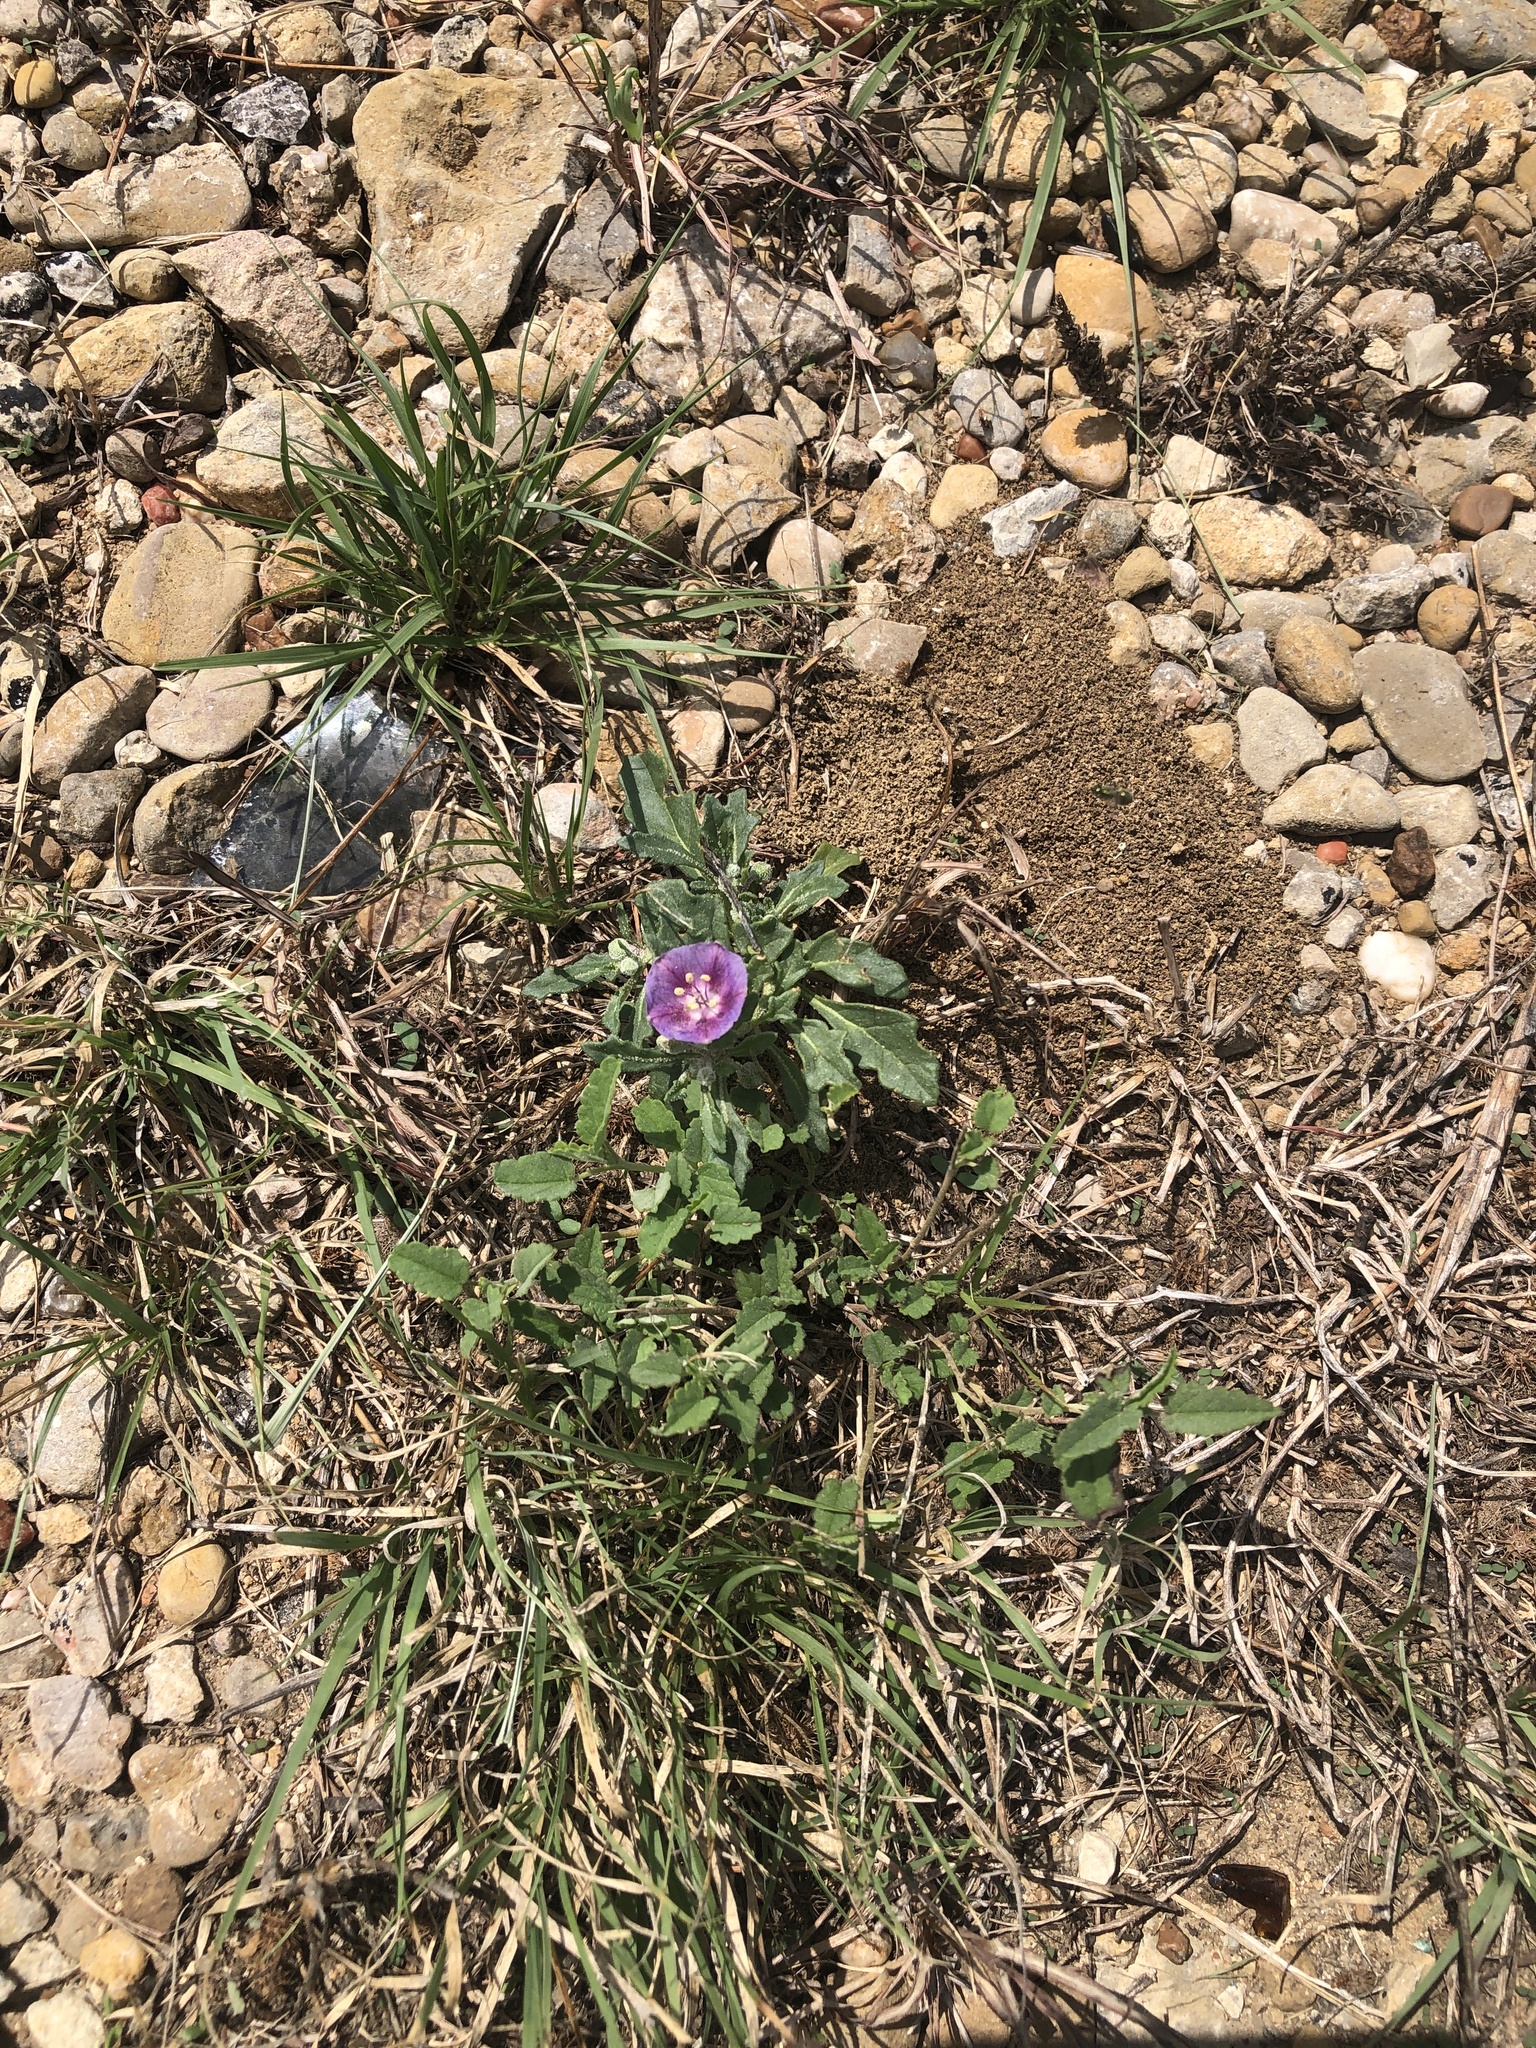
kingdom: Plantae
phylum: Tracheophyta
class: Magnoliopsida
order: Solanales
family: Solanaceae
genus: Quincula
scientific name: Quincula lobata
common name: Purple-ground-cherry
